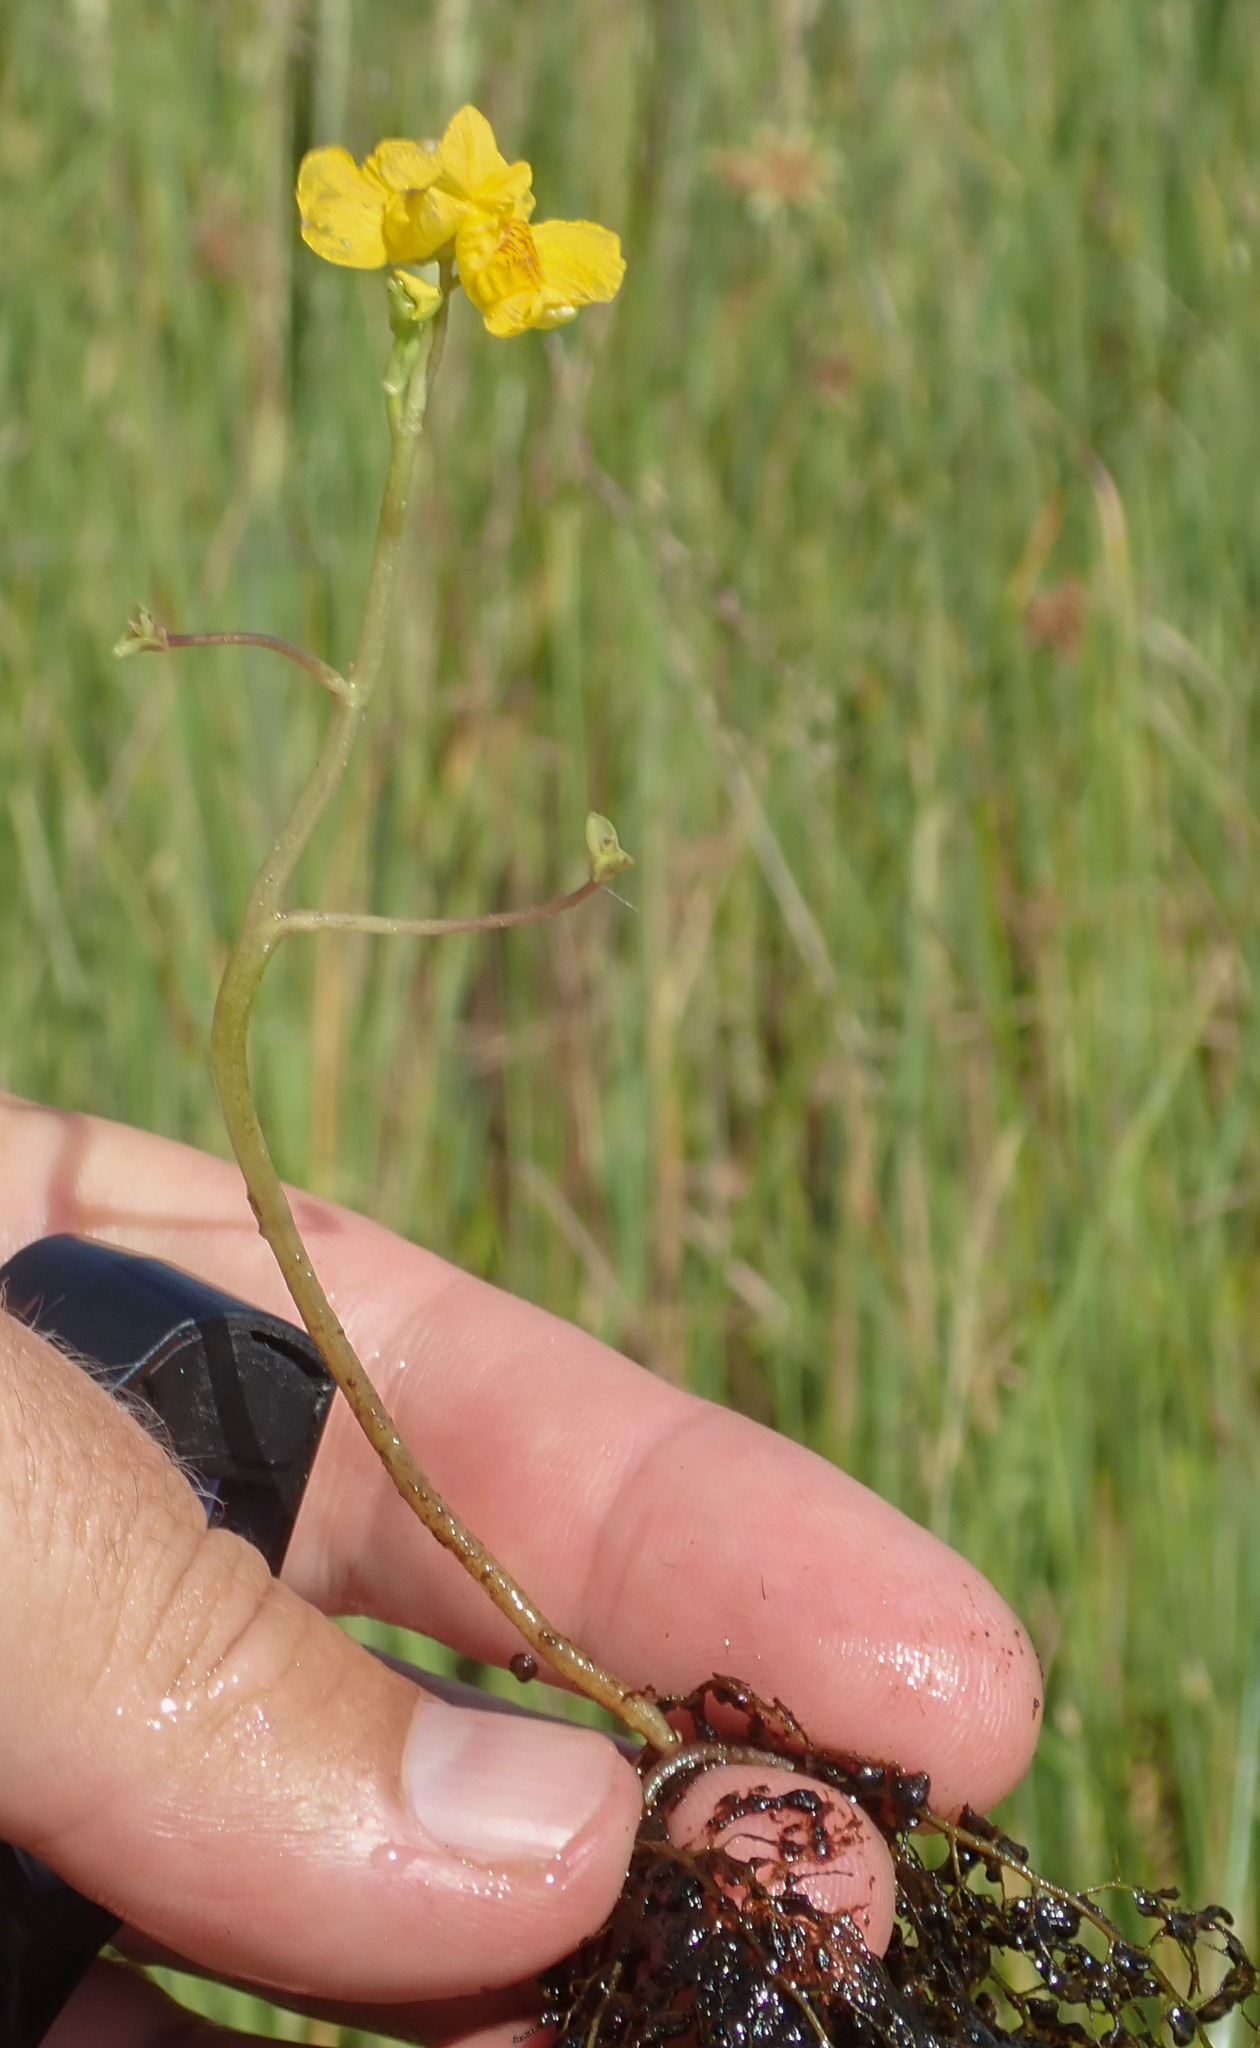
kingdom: Plantae
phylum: Tracheophyta
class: Magnoliopsida
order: Lamiales
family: Lentibulariaceae
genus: Utricularia
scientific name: Utricularia foliosa
